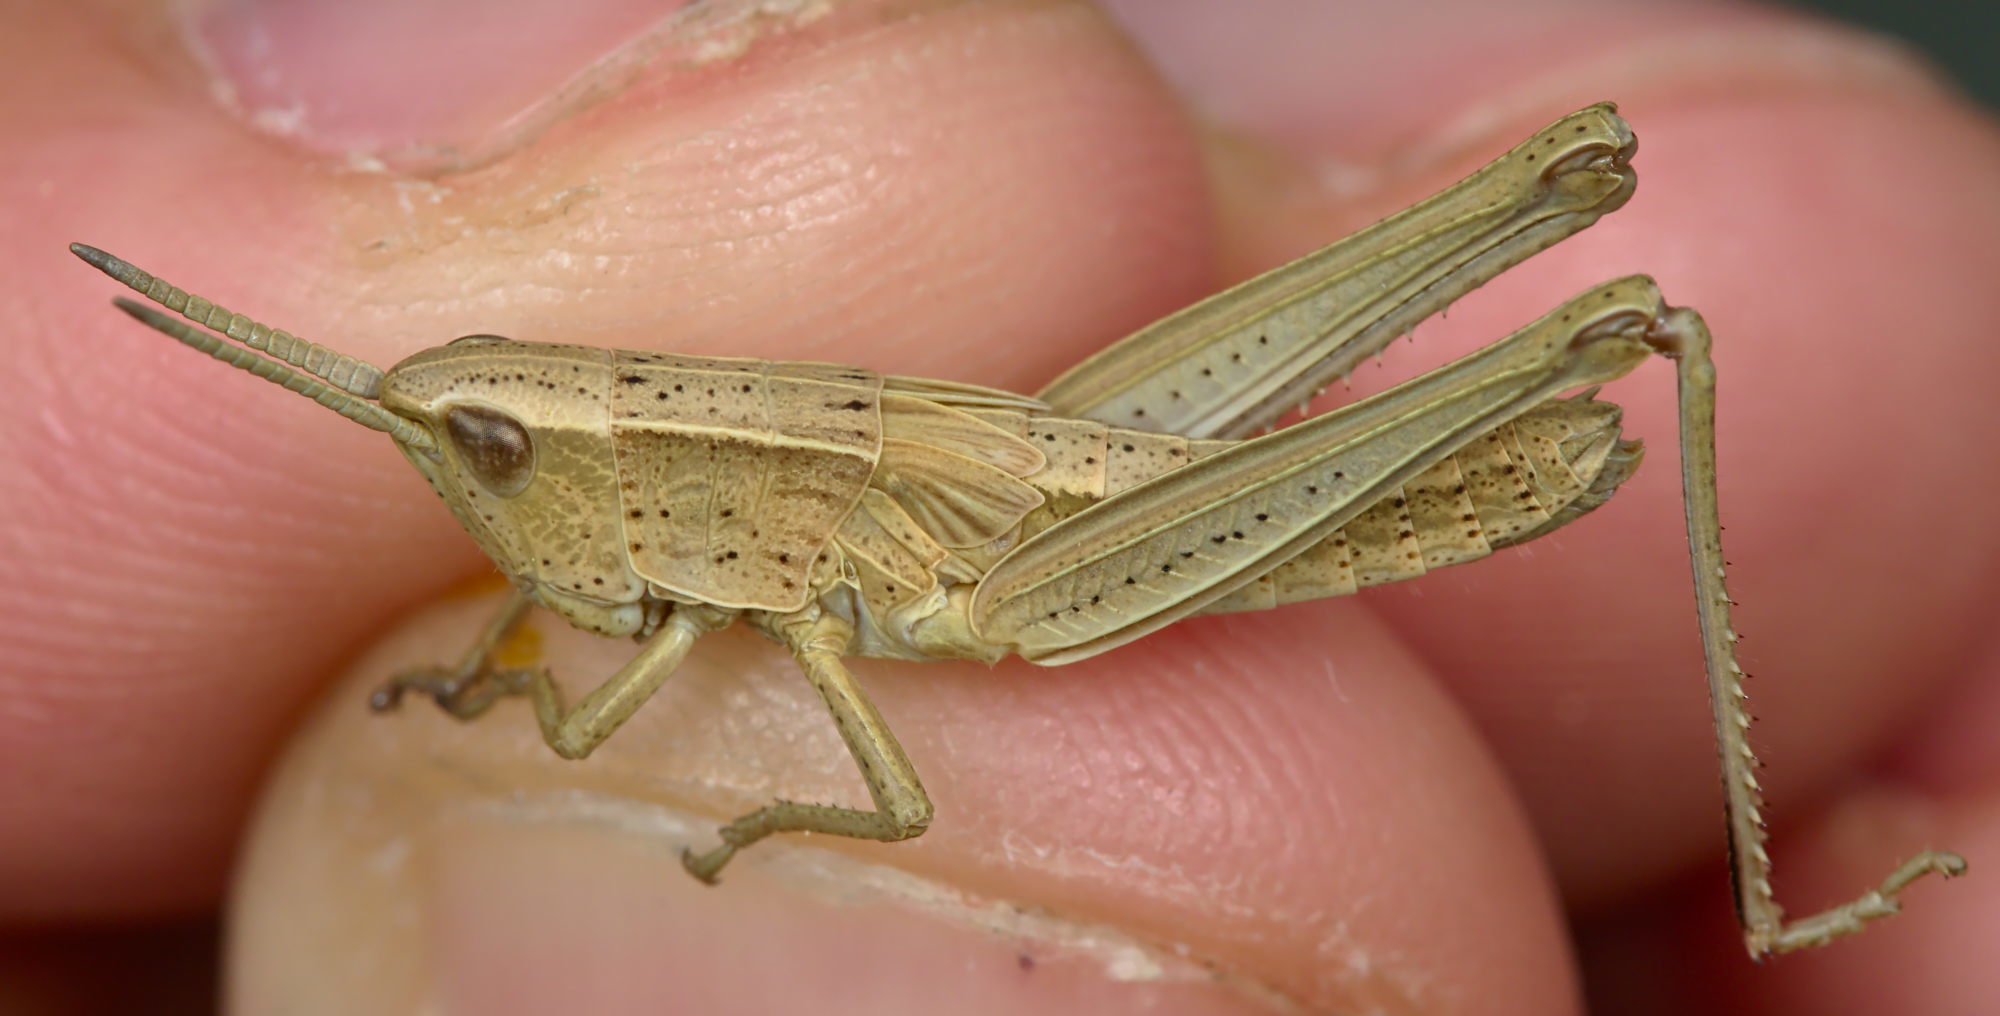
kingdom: Animalia
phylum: Arthropoda
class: Insecta
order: Orthoptera
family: Acrididae
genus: Chrysochraon
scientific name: Chrysochraon dispar
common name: Large gold grasshopper
